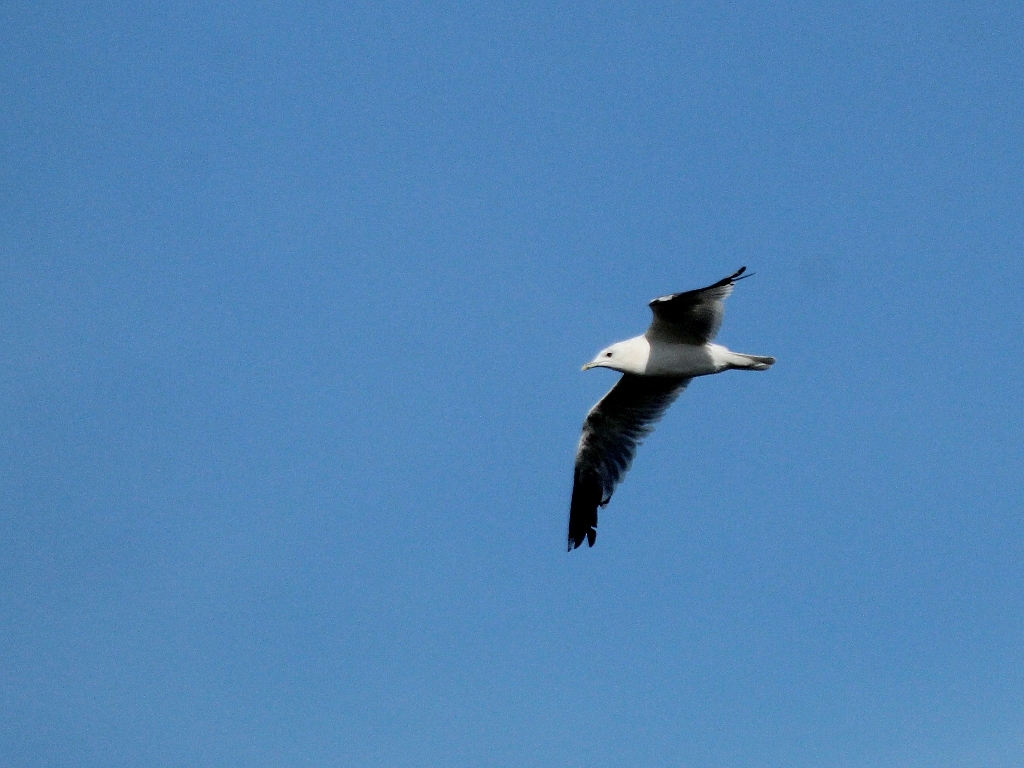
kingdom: Animalia
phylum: Chordata
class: Aves
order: Charadriiformes
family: Laridae
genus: Larus
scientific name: Larus canus
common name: Mew gull
